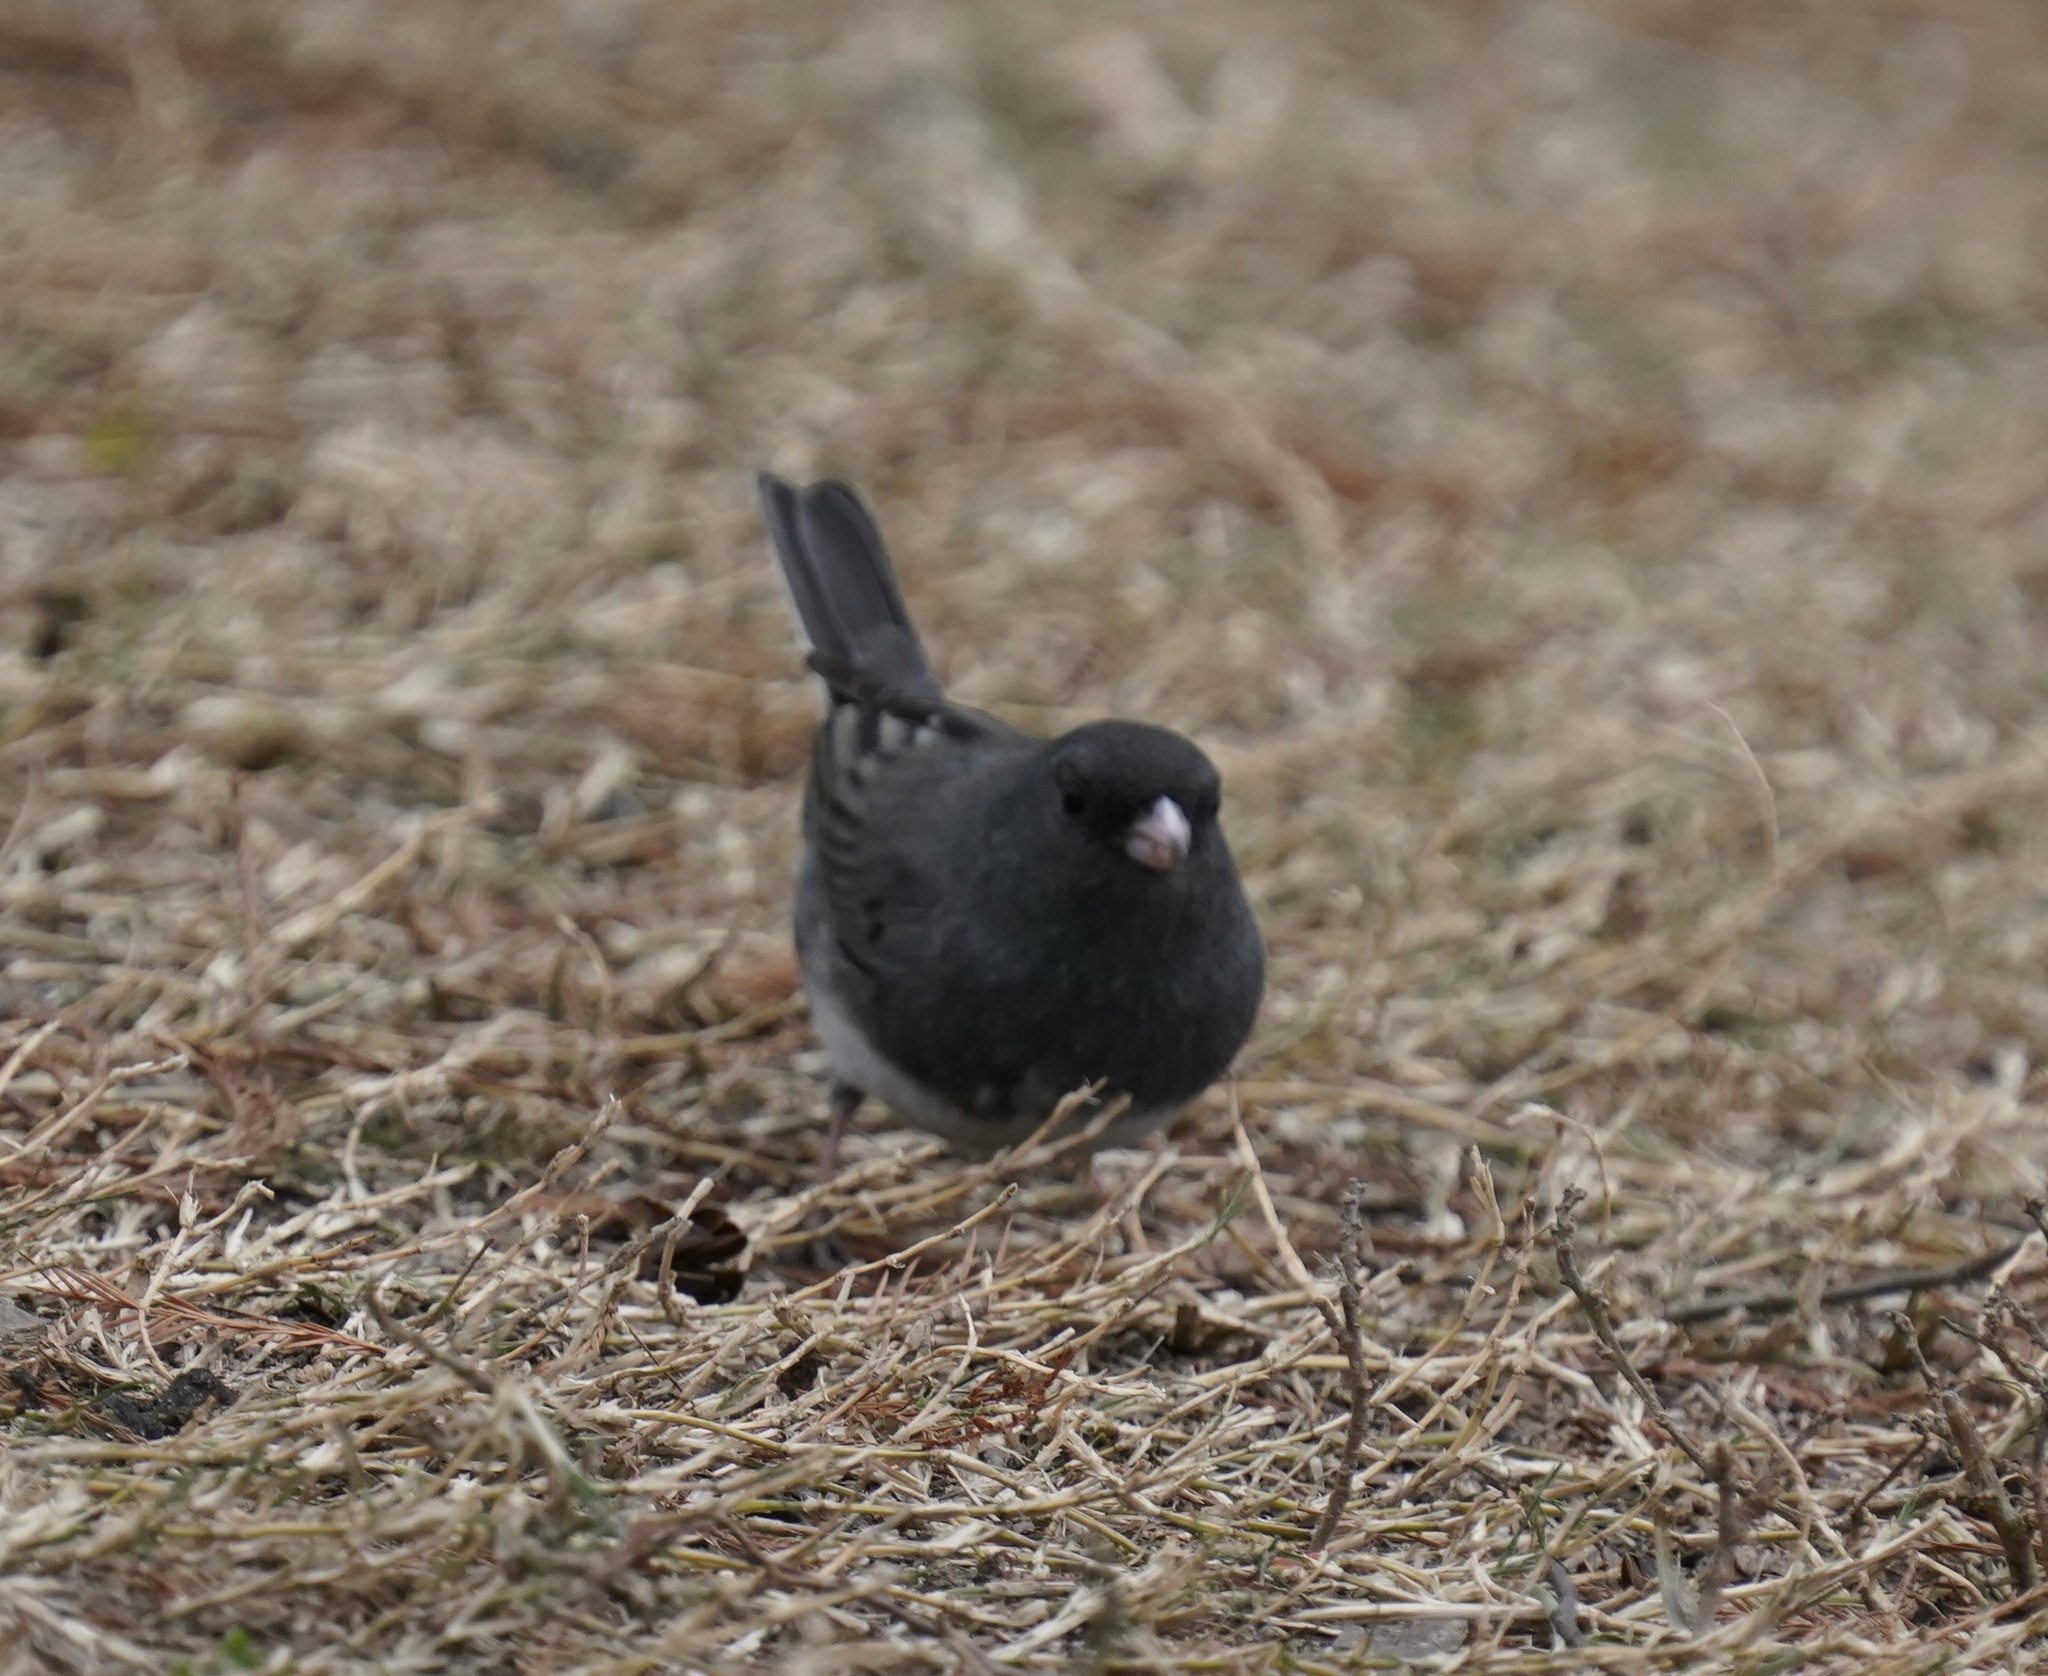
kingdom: Animalia
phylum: Chordata
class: Aves
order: Passeriformes
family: Passerellidae
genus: Junco
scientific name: Junco hyemalis
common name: Dark-eyed junco
